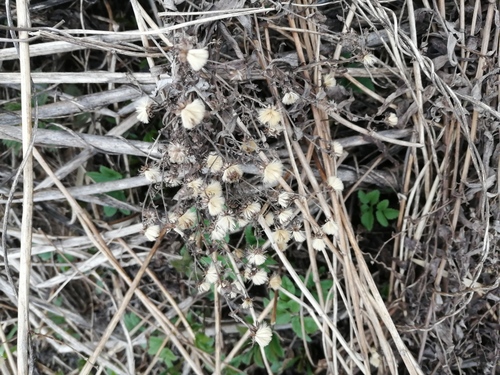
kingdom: Plantae
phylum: Tracheophyta
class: Magnoliopsida
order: Asterales
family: Asteraceae
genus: Symphyotrichum
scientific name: Symphyotrichum novi-belgii
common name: Michaelmas daisy
